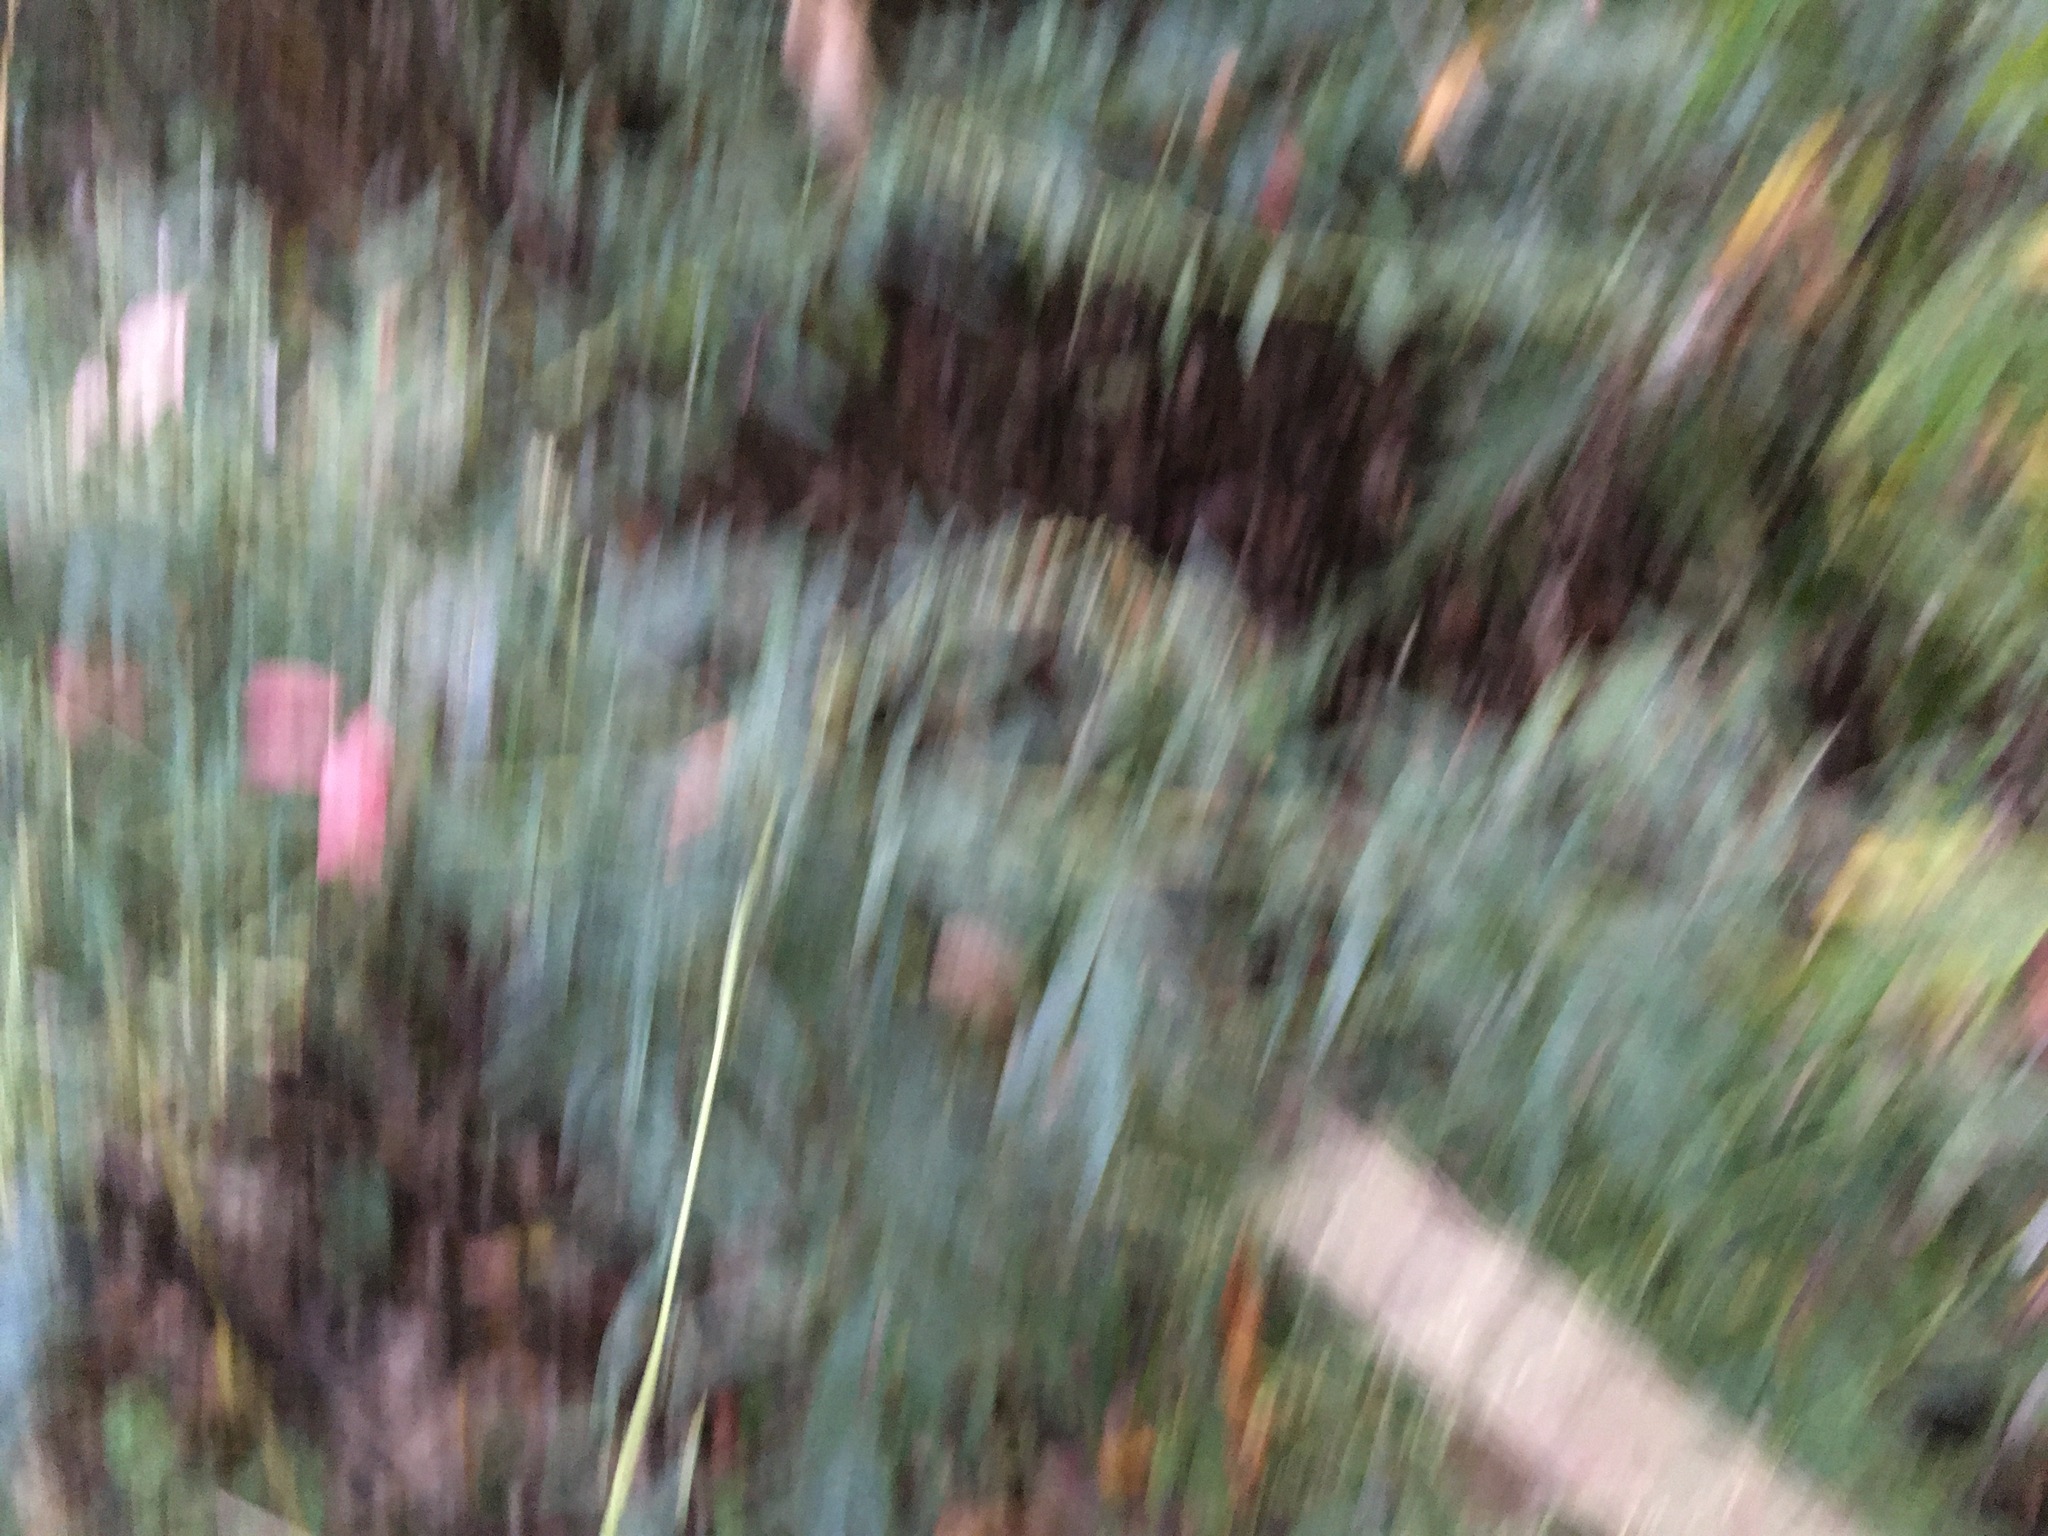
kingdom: Plantae
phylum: Tracheophyta
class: Magnoliopsida
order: Asterales
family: Asteraceae
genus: Artemisia
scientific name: Artemisia vulgaris
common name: Mugwort
